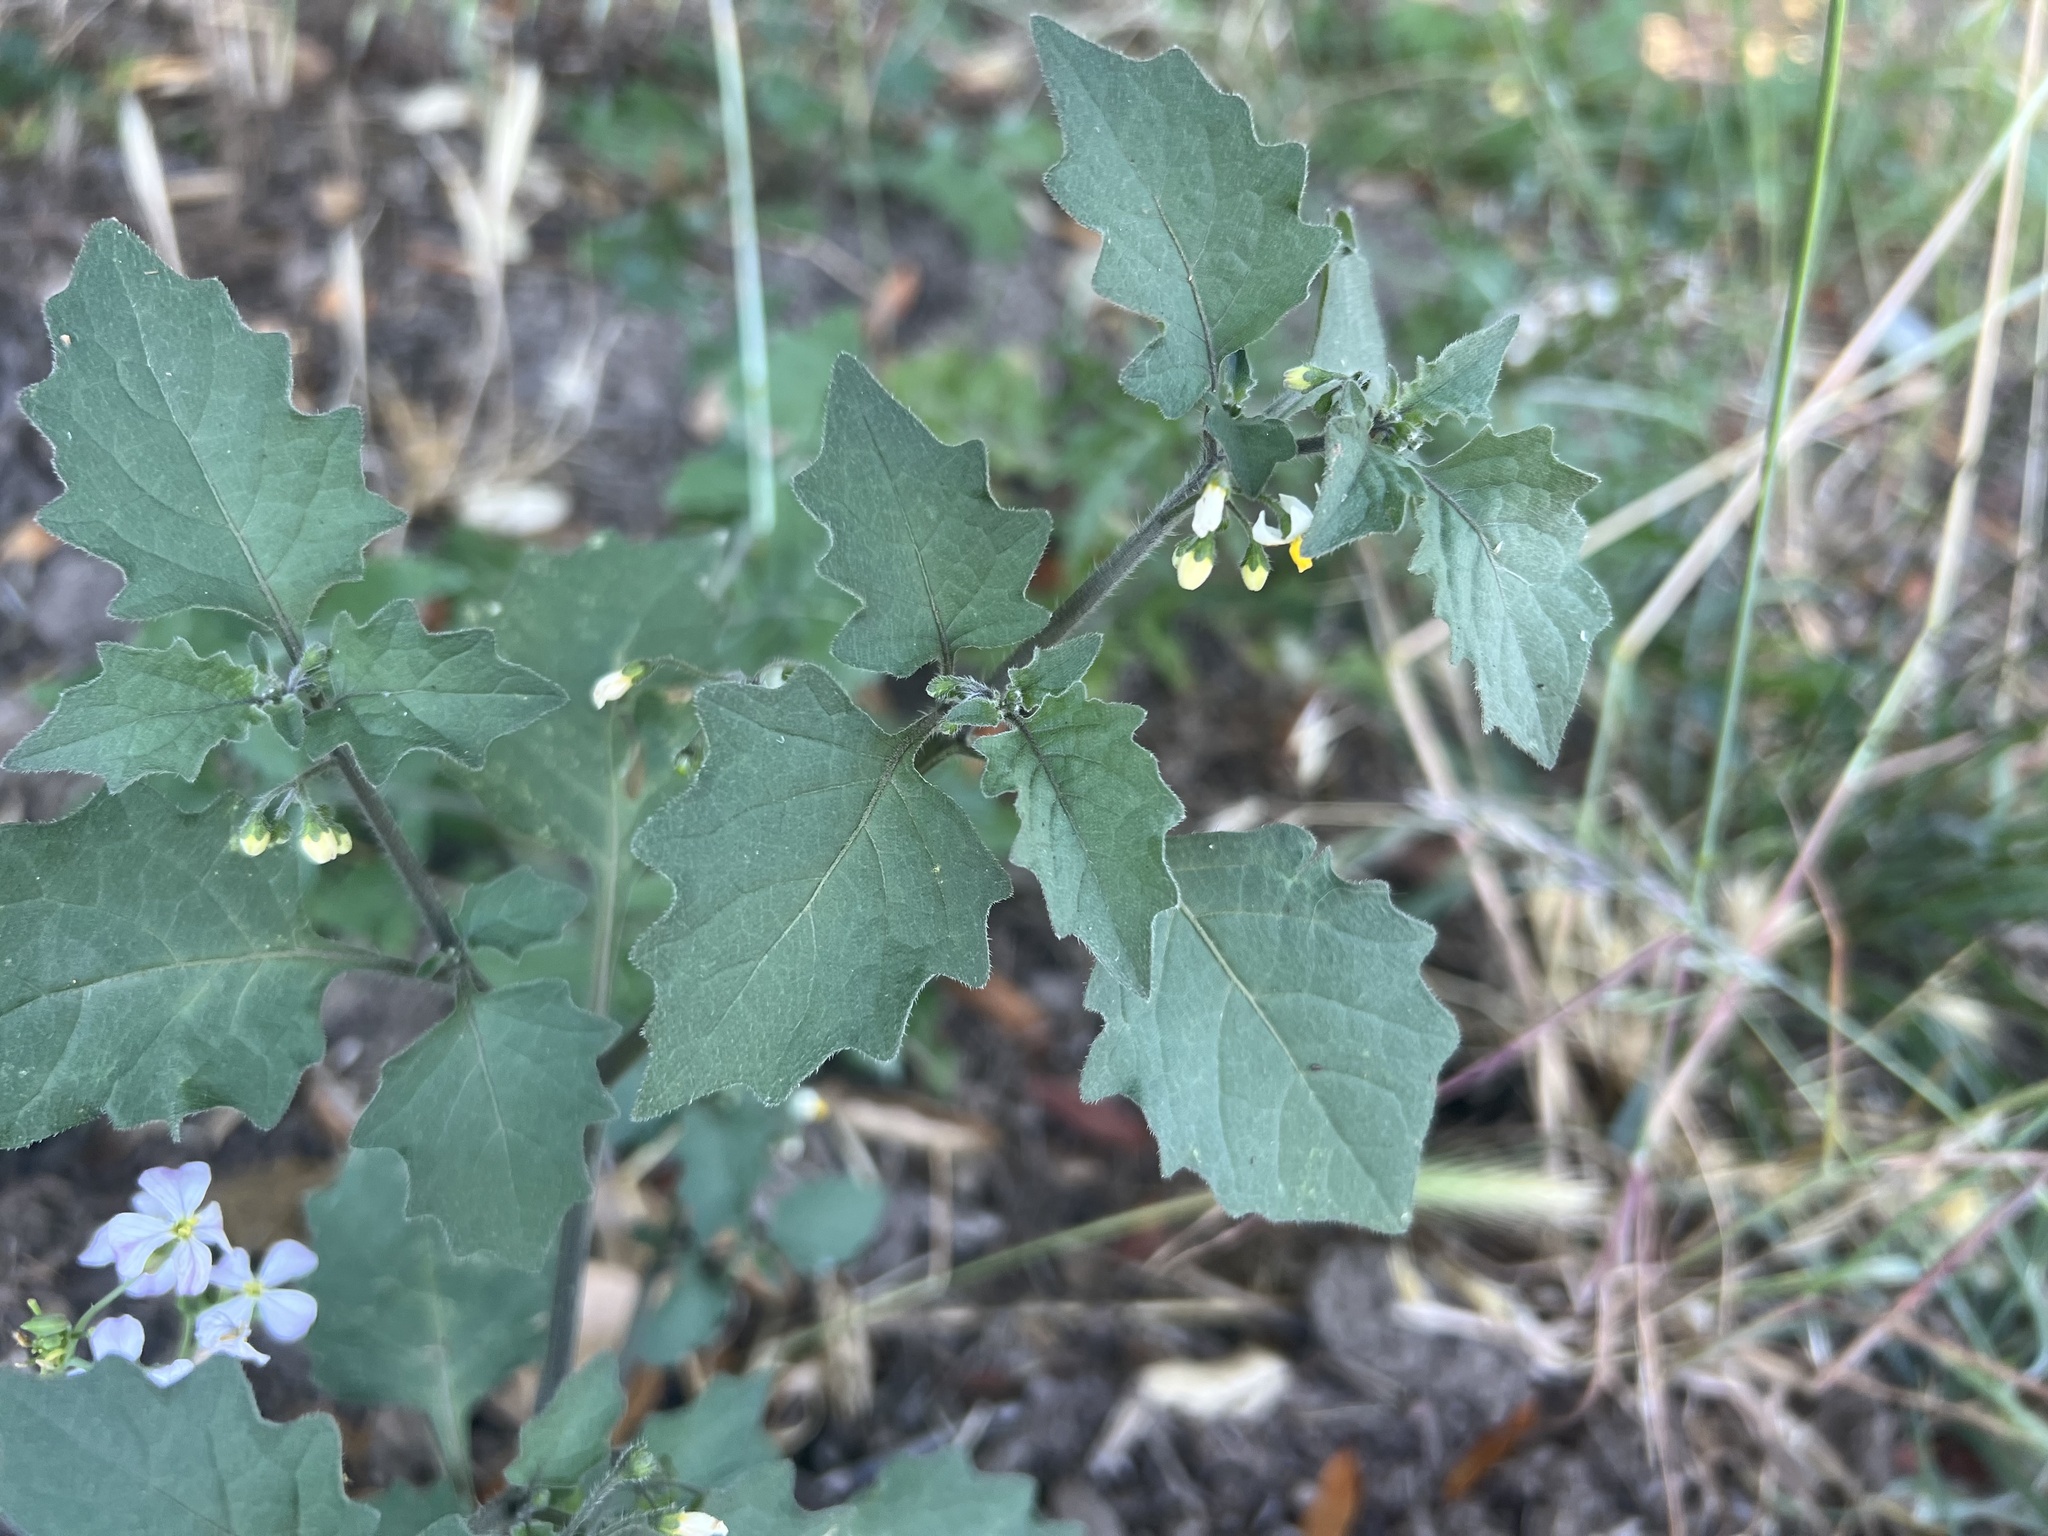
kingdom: Plantae
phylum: Tracheophyta
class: Magnoliopsida
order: Solanales
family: Solanaceae
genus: Solanum
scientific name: Solanum nigrum
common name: Black nightshade
